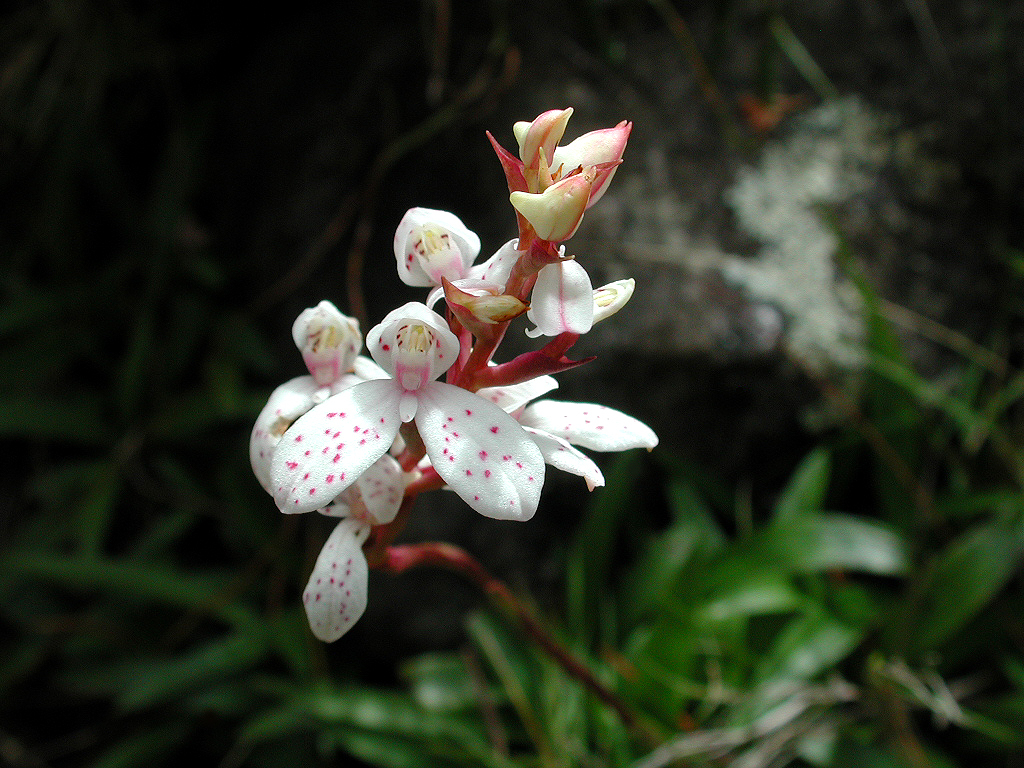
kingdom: Plantae
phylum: Tracheophyta
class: Liliopsida
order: Asparagales
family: Orchidaceae
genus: Disa
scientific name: Disa tripetaloides
